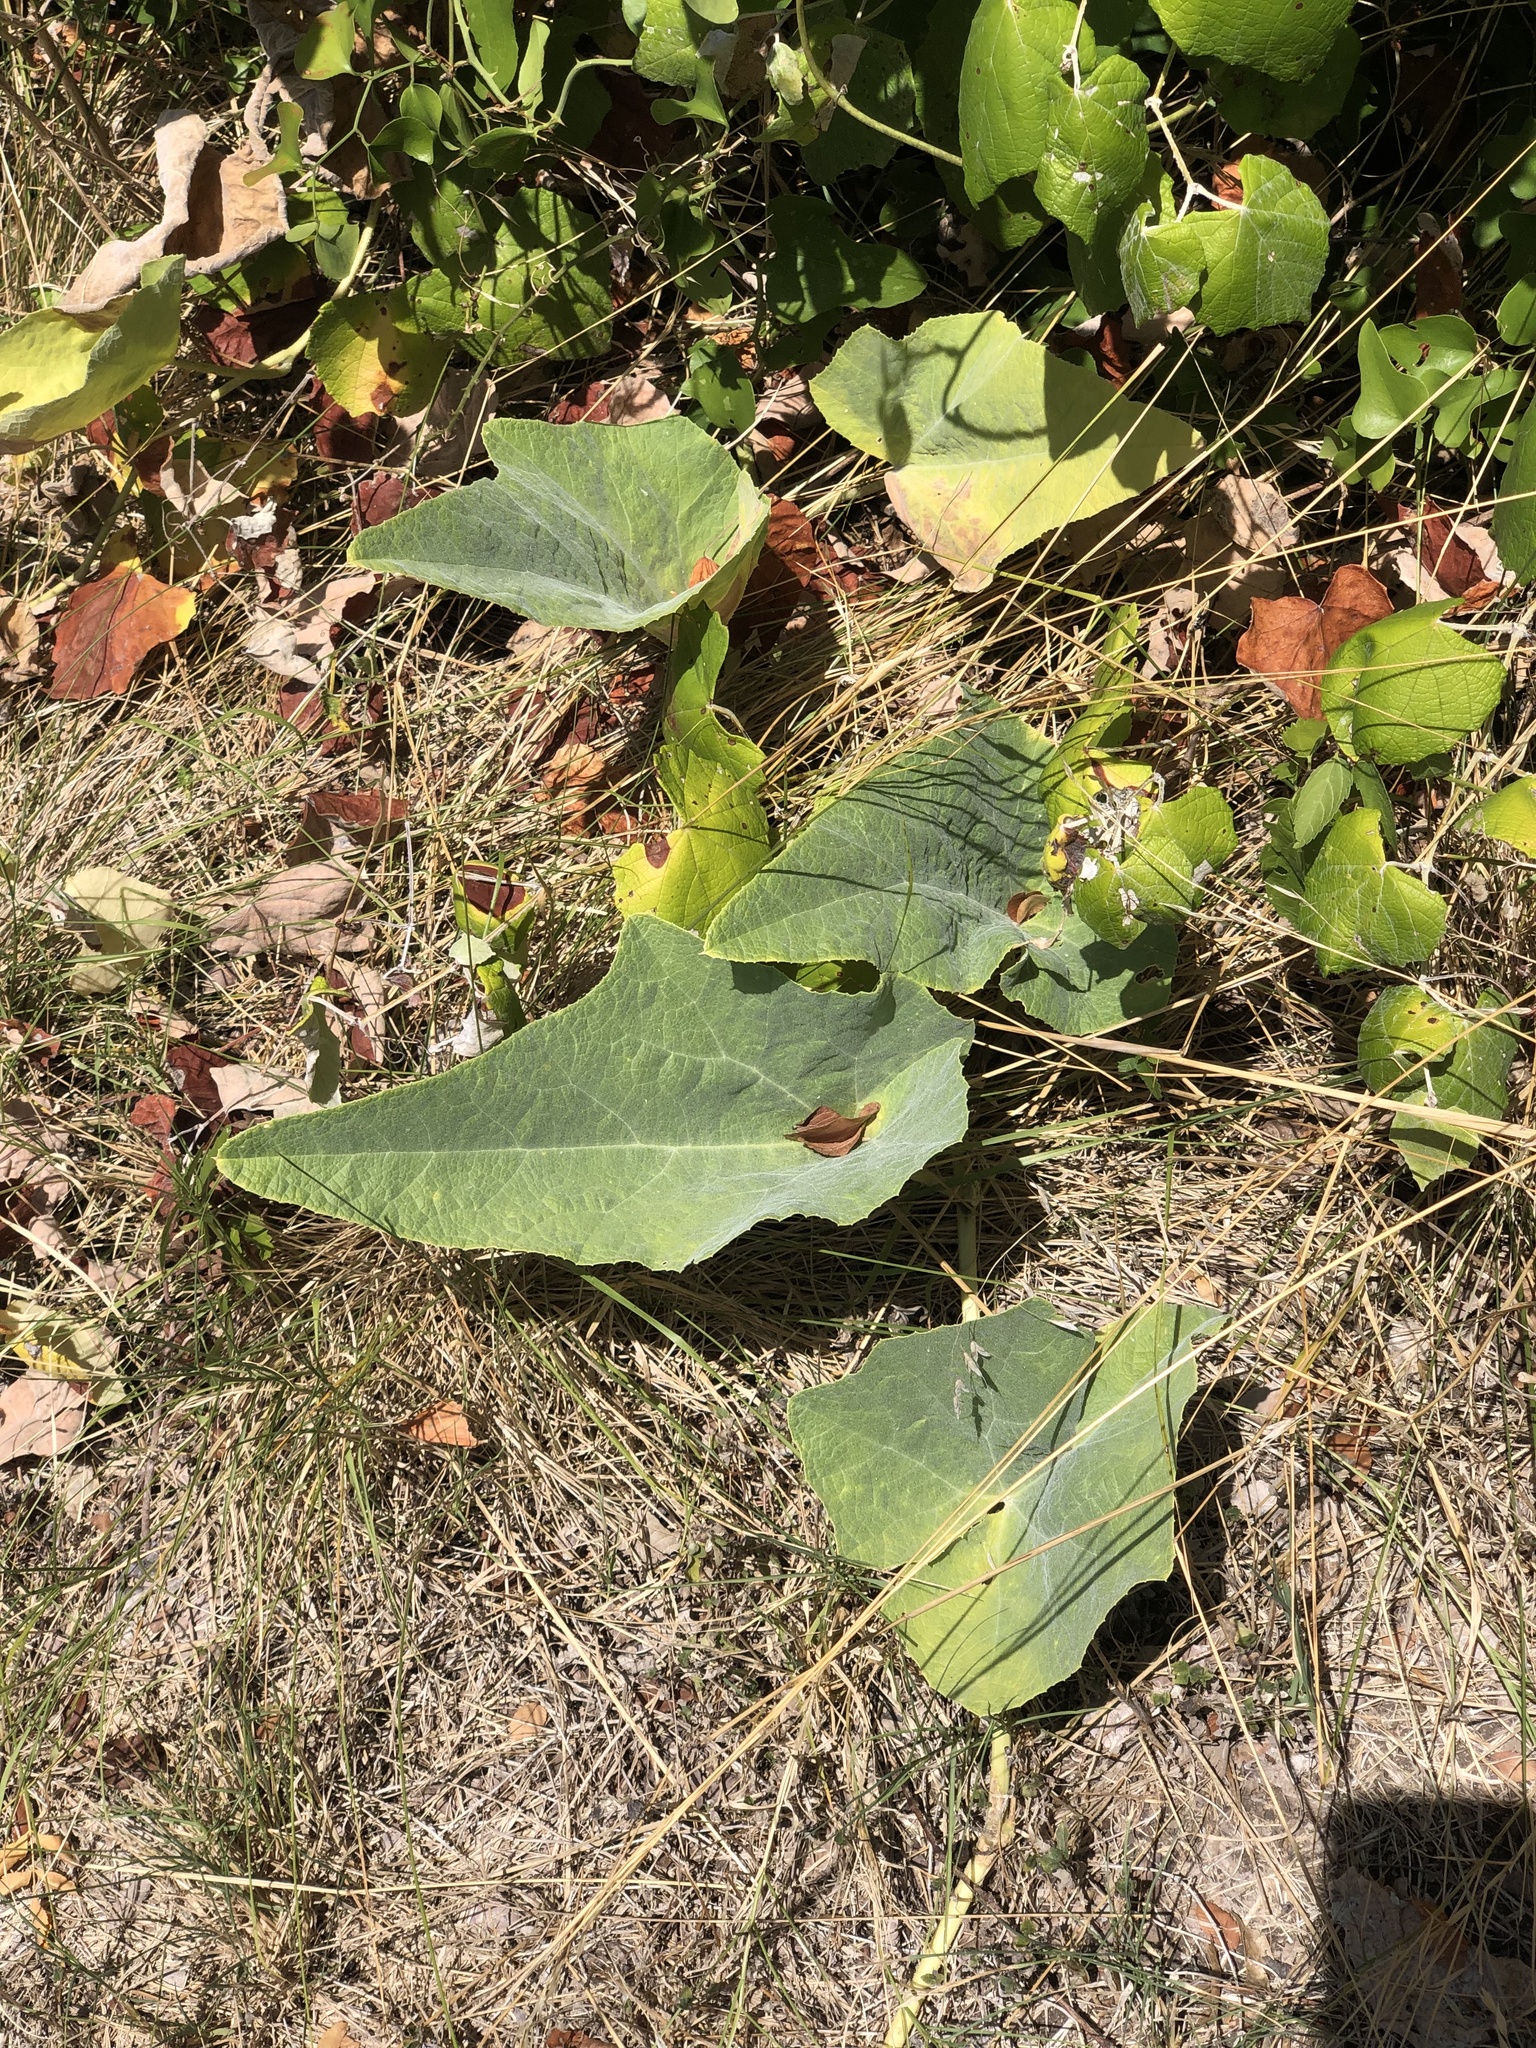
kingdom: Plantae
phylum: Tracheophyta
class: Magnoliopsida
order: Cucurbitales
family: Cucurbitaceae
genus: Cucurbita
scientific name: Cucurbita foetidissima
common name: Buffalo gourd
